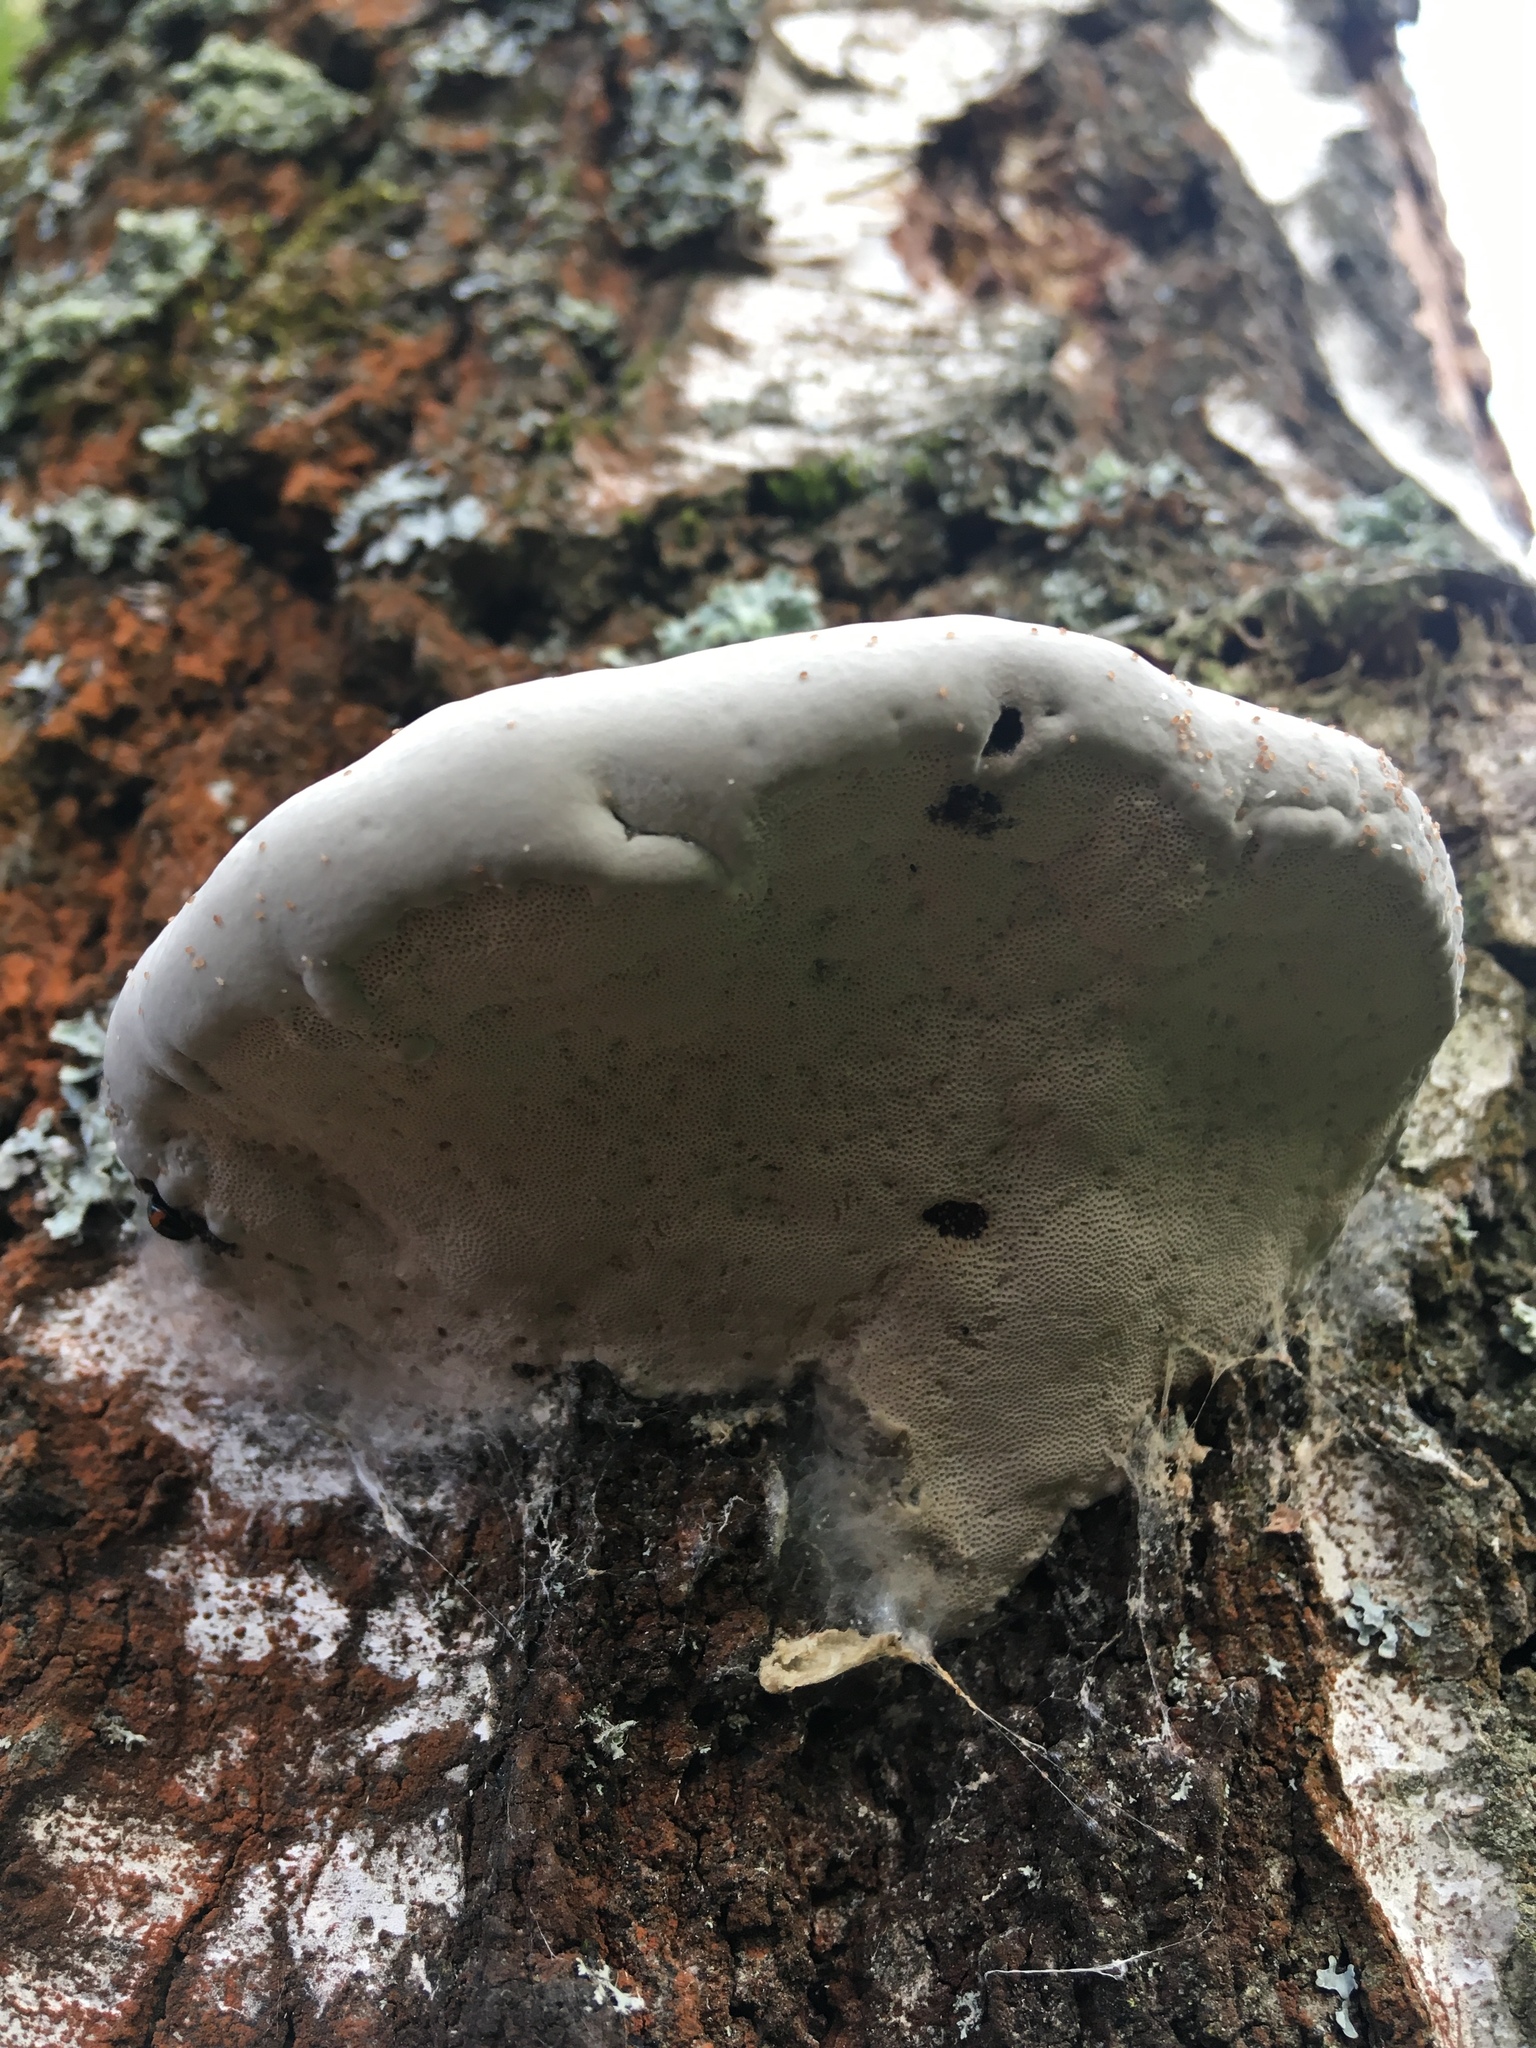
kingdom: Fungi
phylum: Basidiomycota
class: Agaricomycetes
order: Polyporales
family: Polyporaceae
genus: Fomes
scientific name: Fomes fomentarius
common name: Hoof fungus
